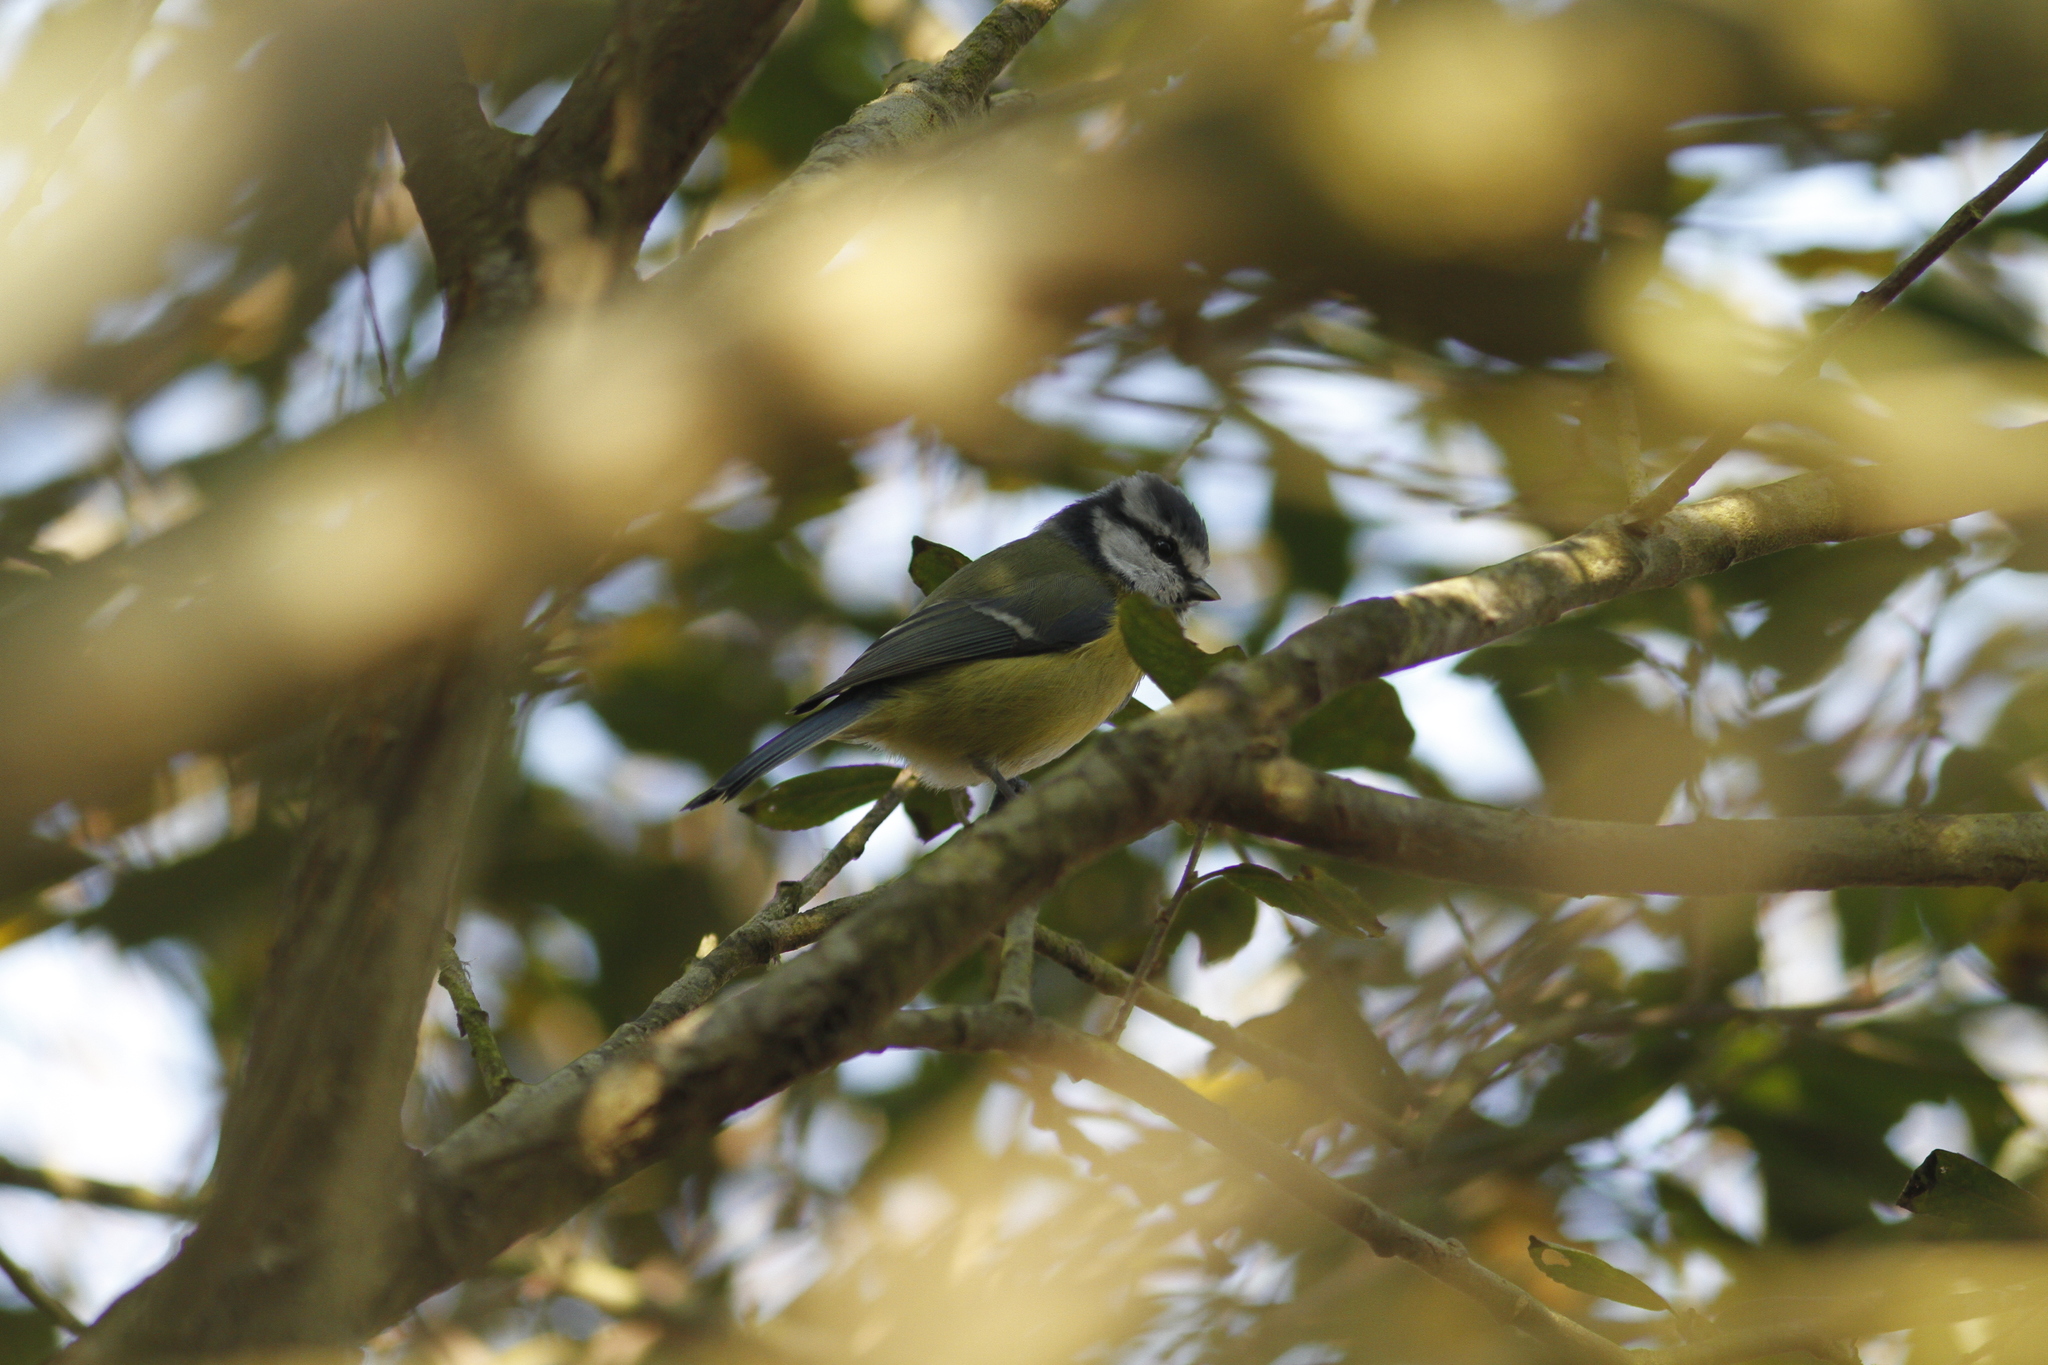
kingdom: Animalia
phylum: Chordata
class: Aves
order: Passeriformes
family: Paridae
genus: Cyanistes
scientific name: Cyanistes caeruleus
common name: Eurasian blue tit
